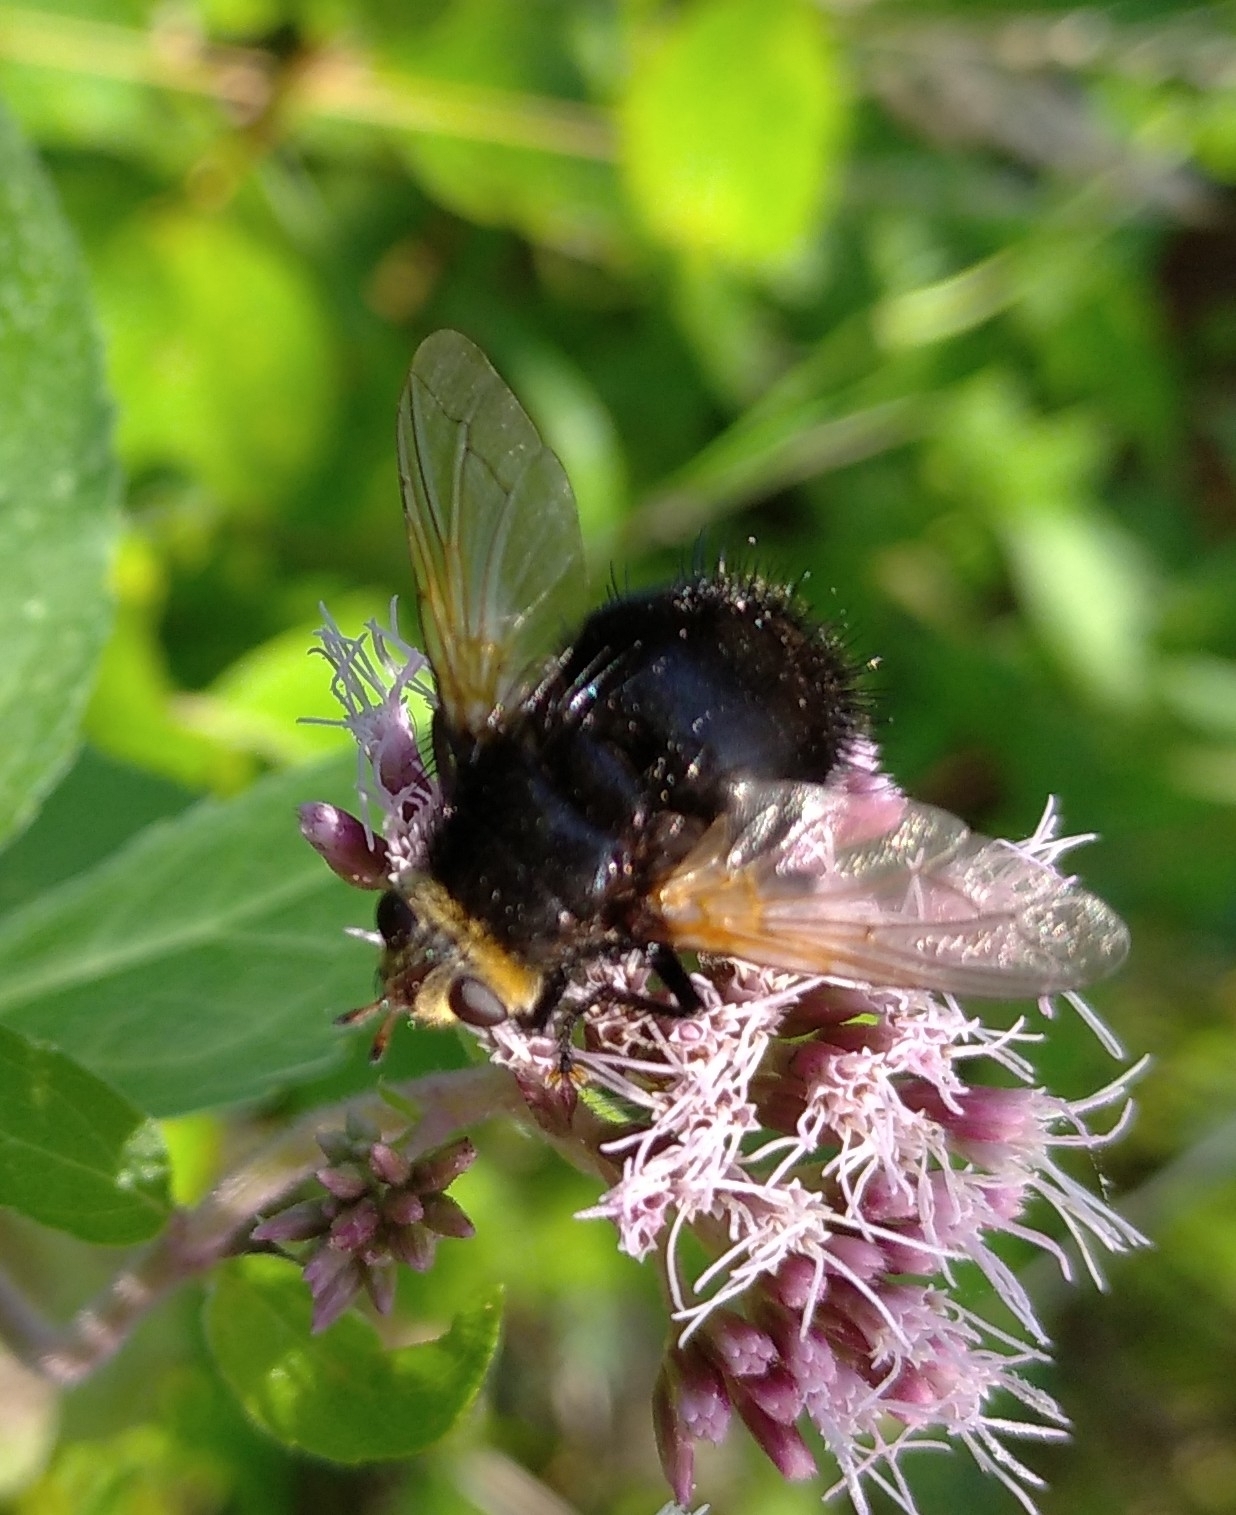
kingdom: Animalia
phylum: Arthropoda
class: Insecta
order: Diptera
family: Tachinidae
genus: Tachina
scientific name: Tachina grossa
